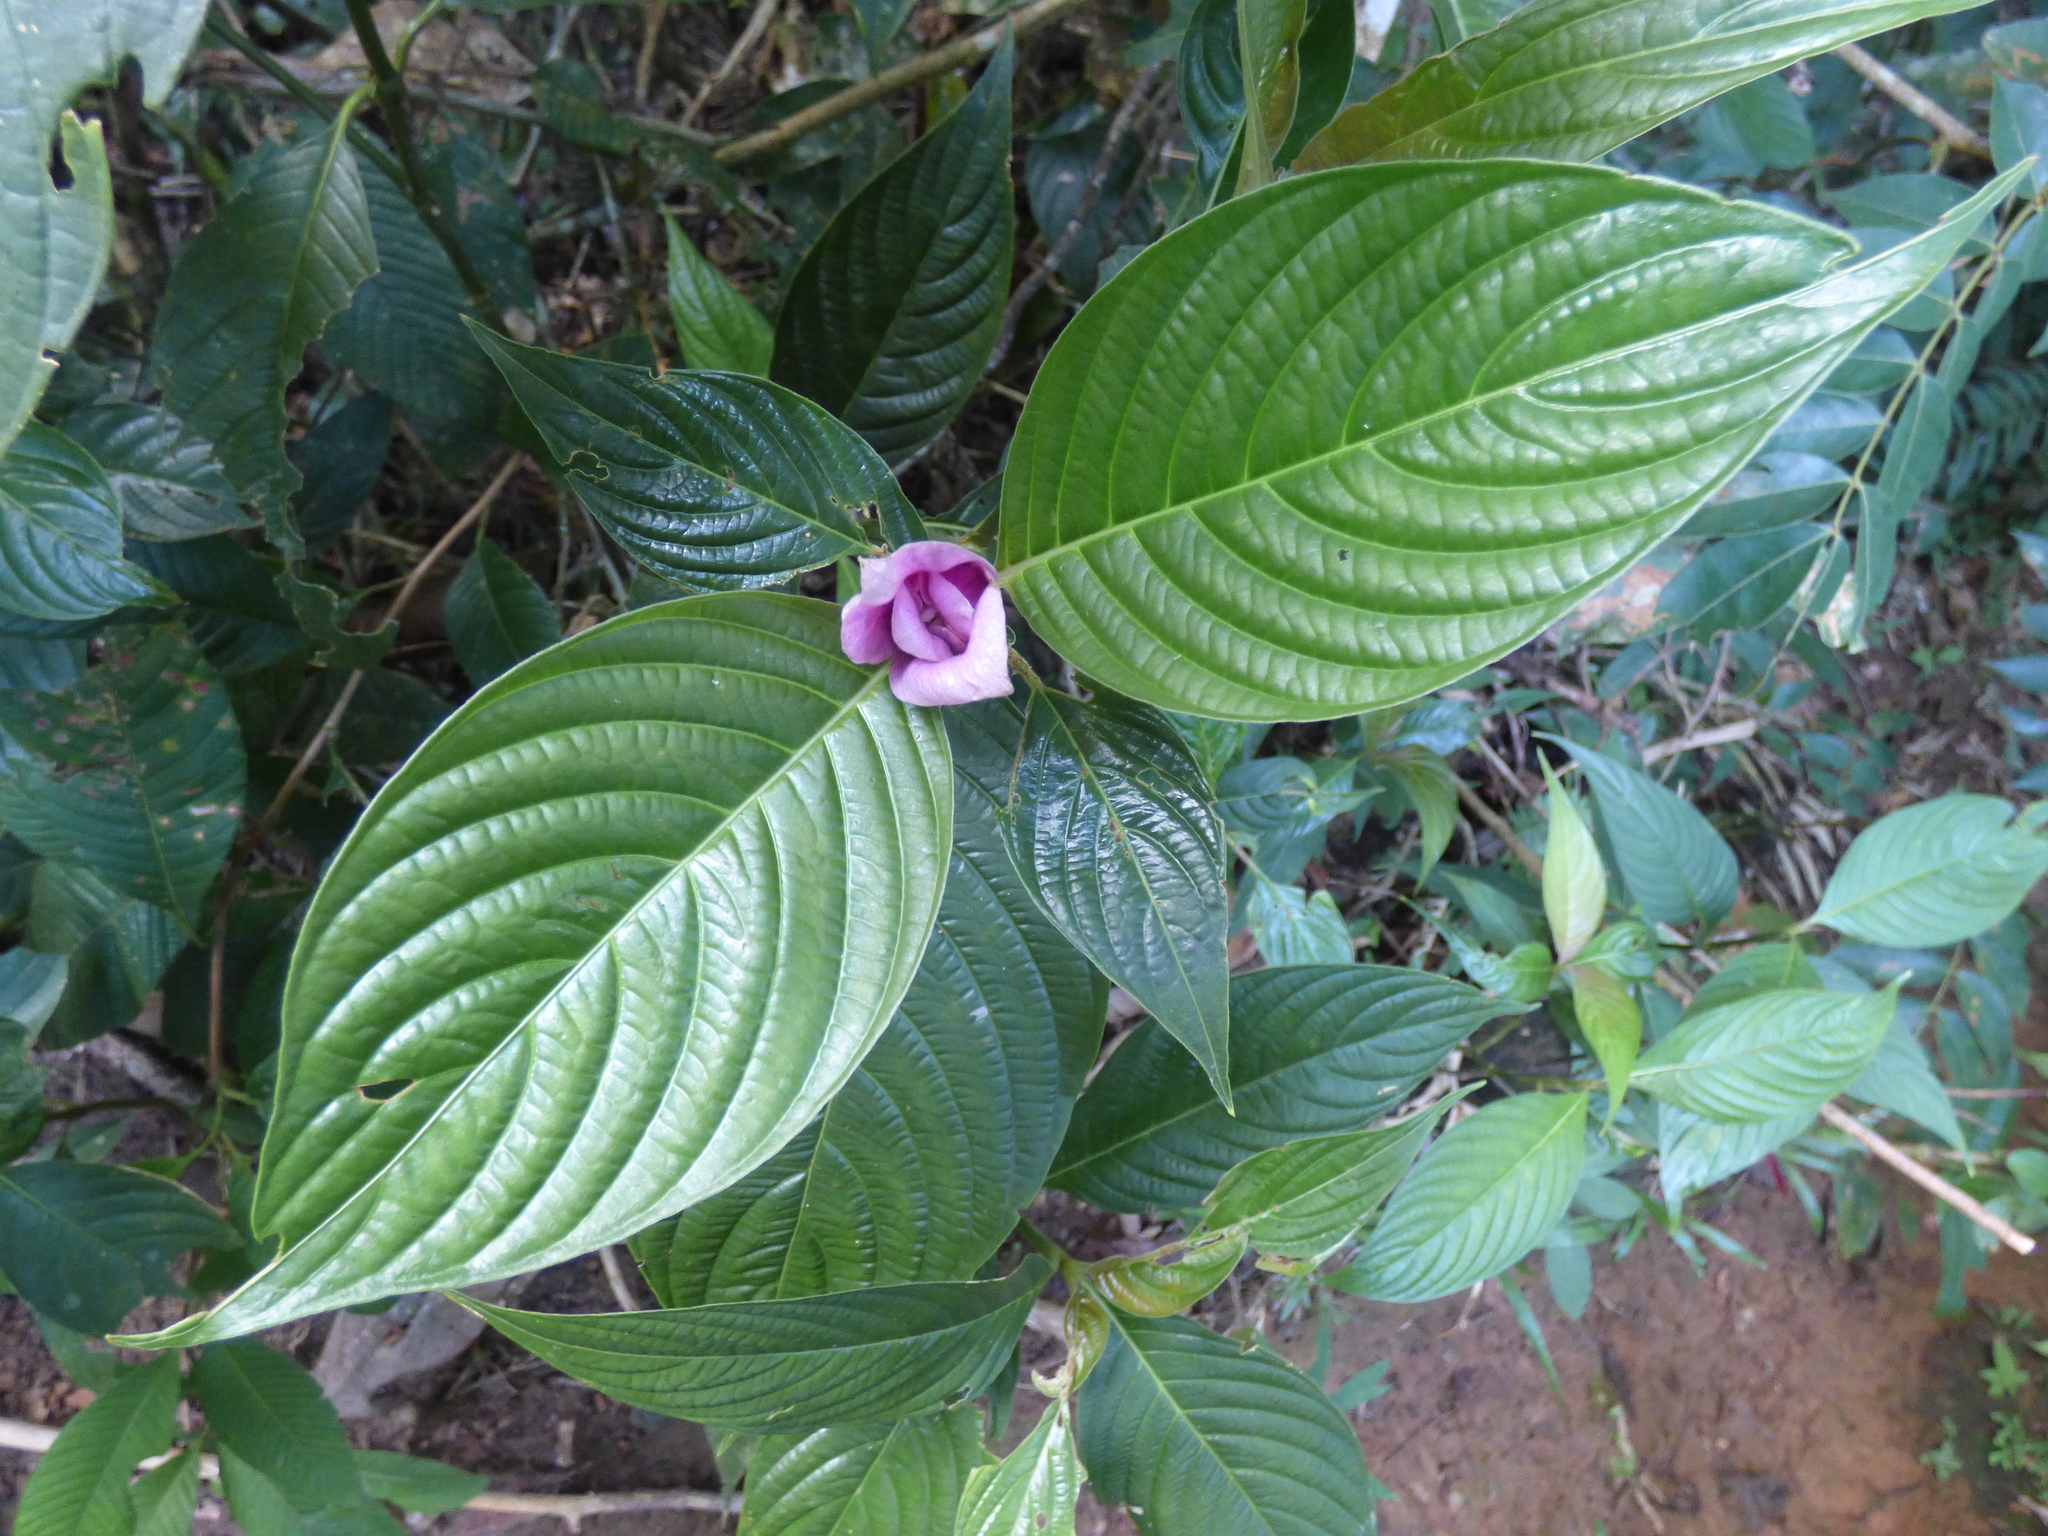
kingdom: Plantae
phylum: Tracheophyta
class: Magnoliopsida
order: Gentianales
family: Rubiaceae
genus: Palicourea
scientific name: Palicourea colorata
